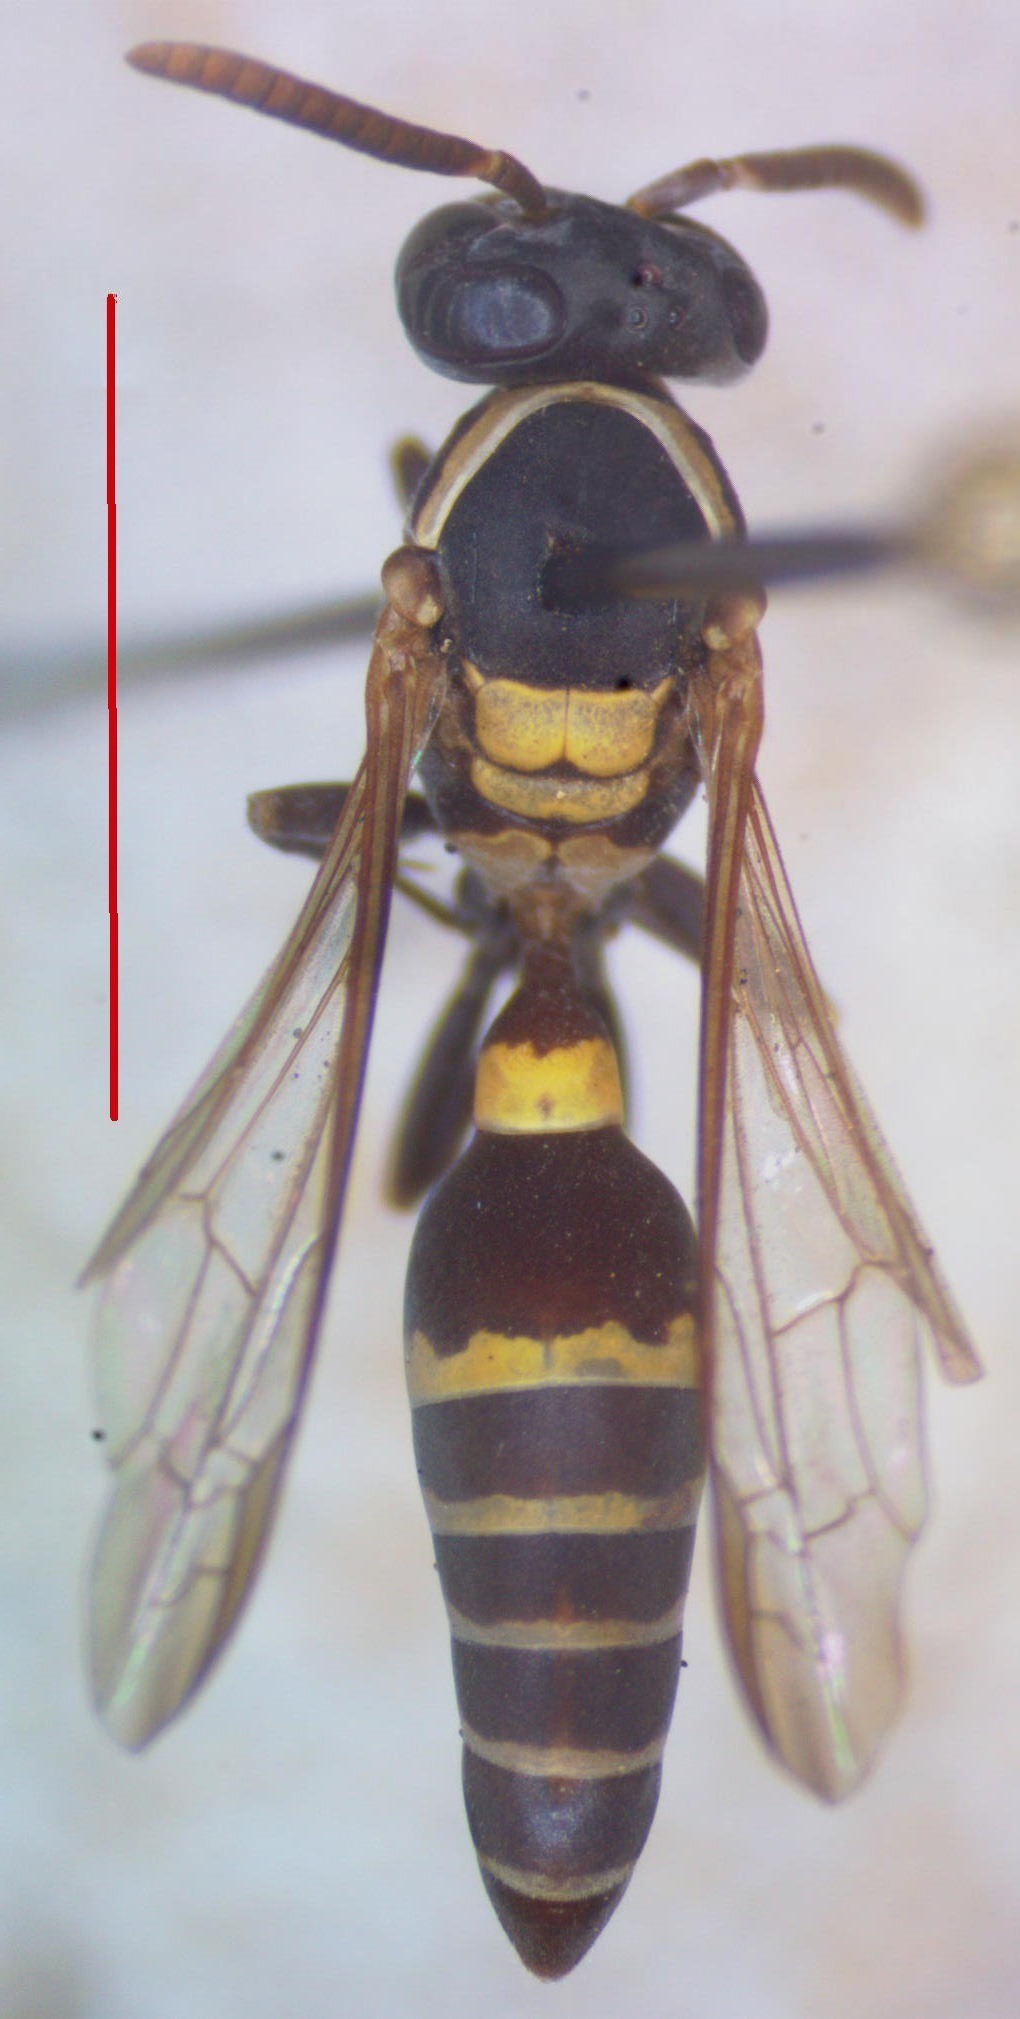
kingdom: Animalia
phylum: Arthropoda
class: Insecta
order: Hymenoptera
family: Eumenidae
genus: Polybia
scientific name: Polybia occidentalis
